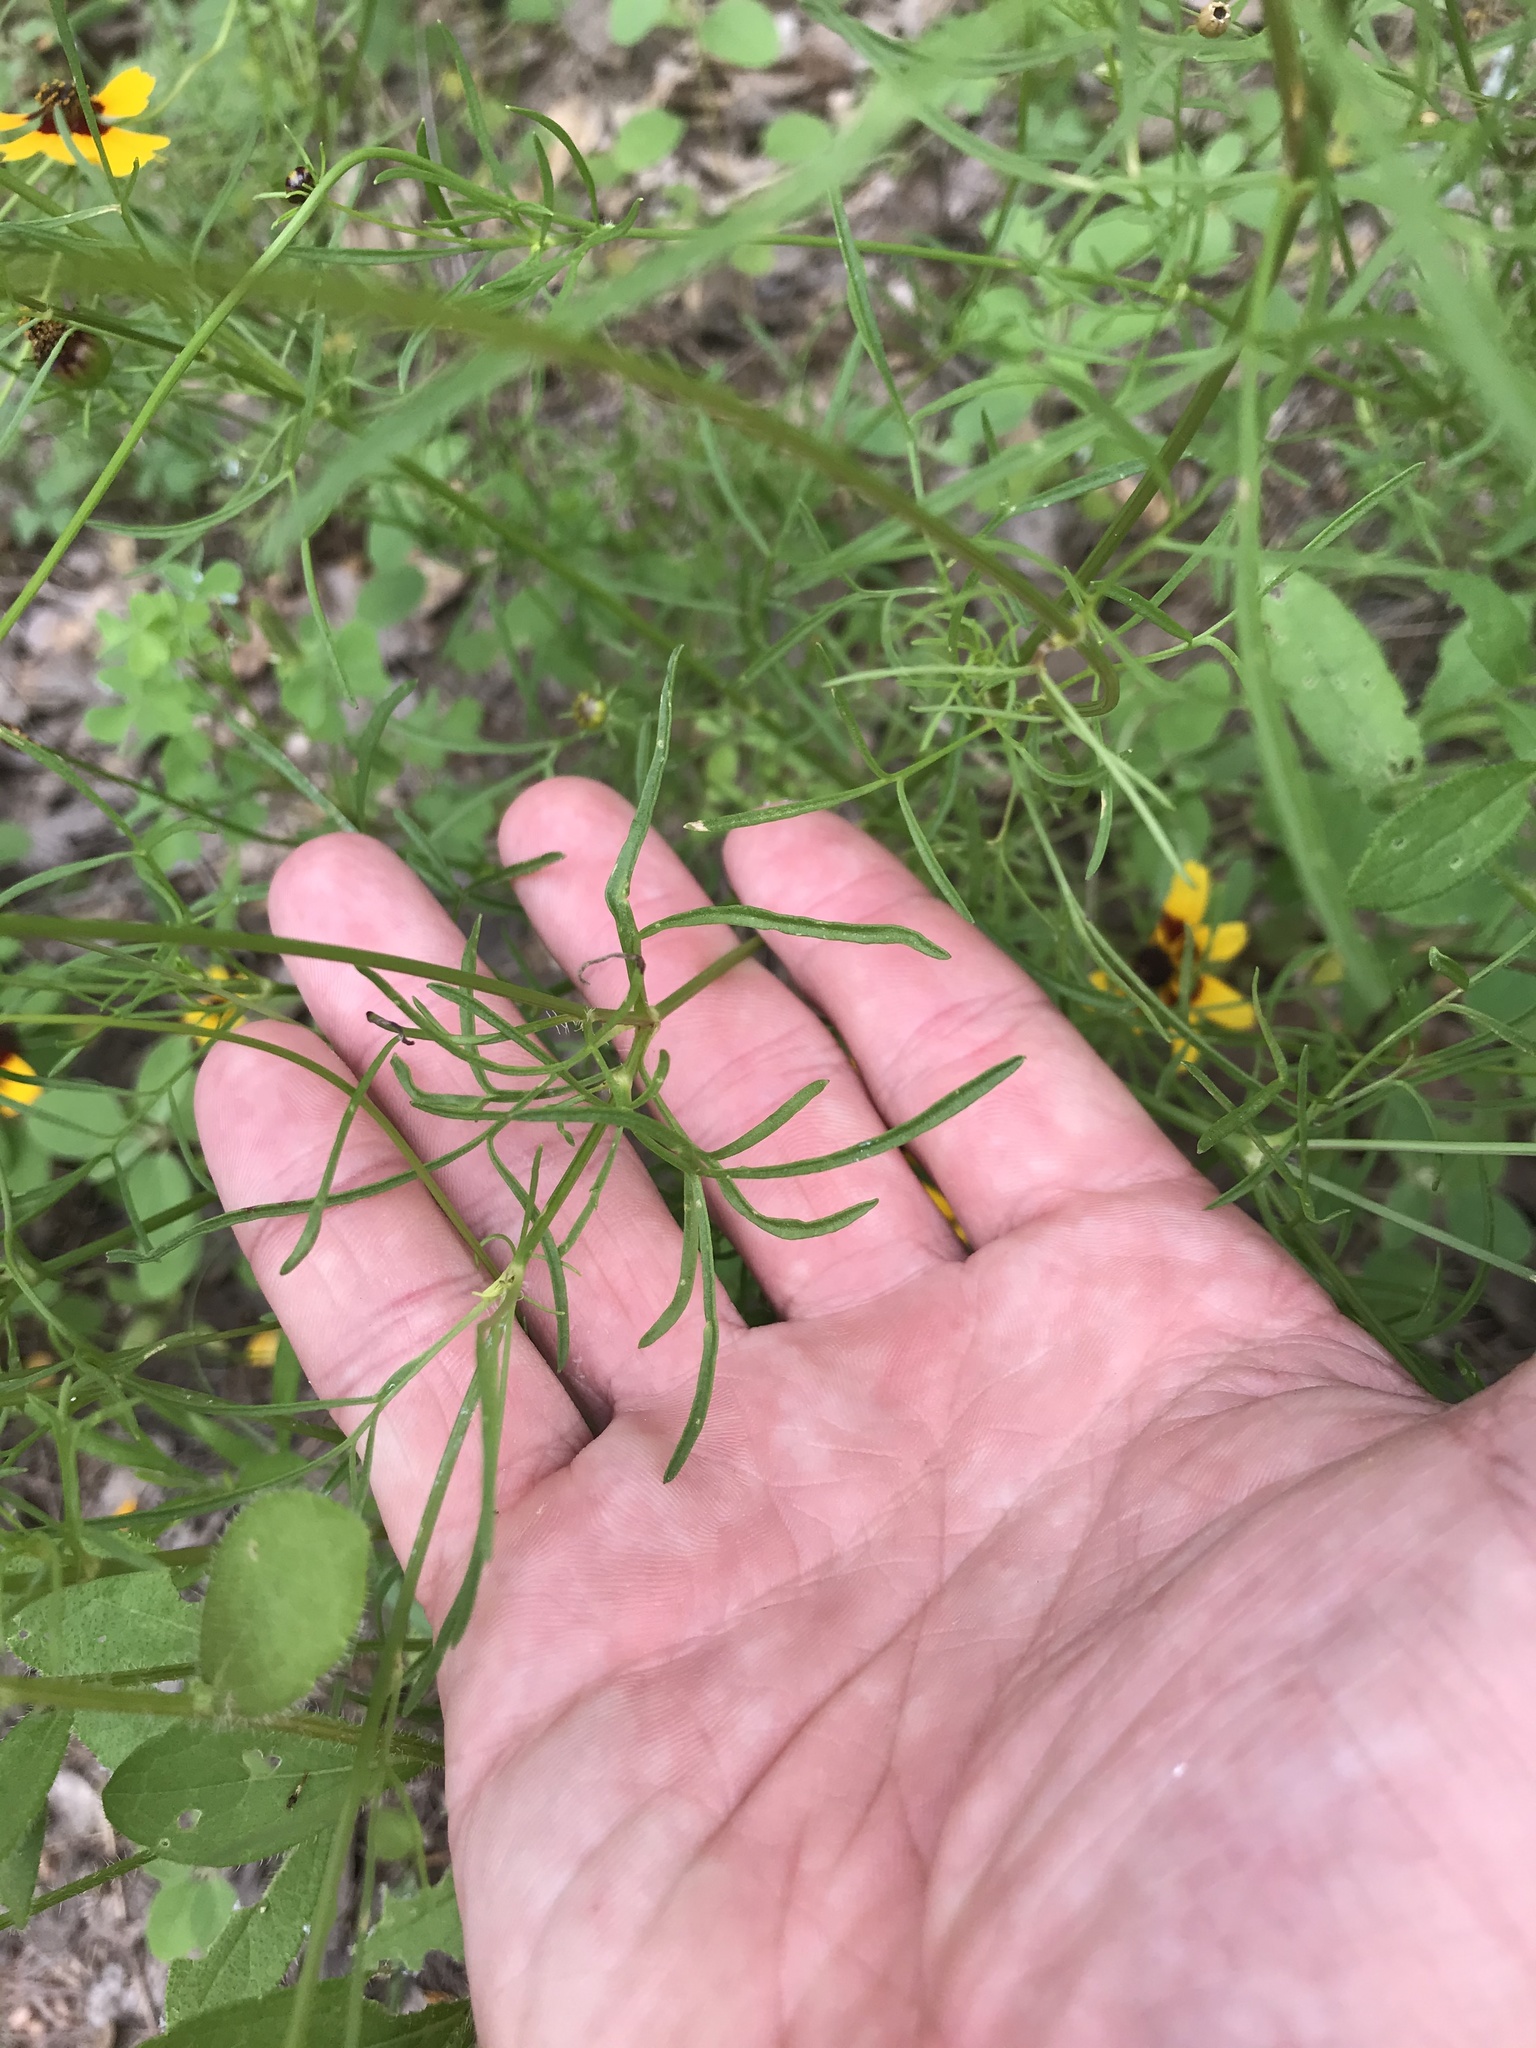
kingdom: Plantae
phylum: Tracheophyta
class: Magnoliopsida
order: Asterales
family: Asteraceae
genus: Coreopsis
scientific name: Coreopsis basalis
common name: Golden-mane coreopsis
